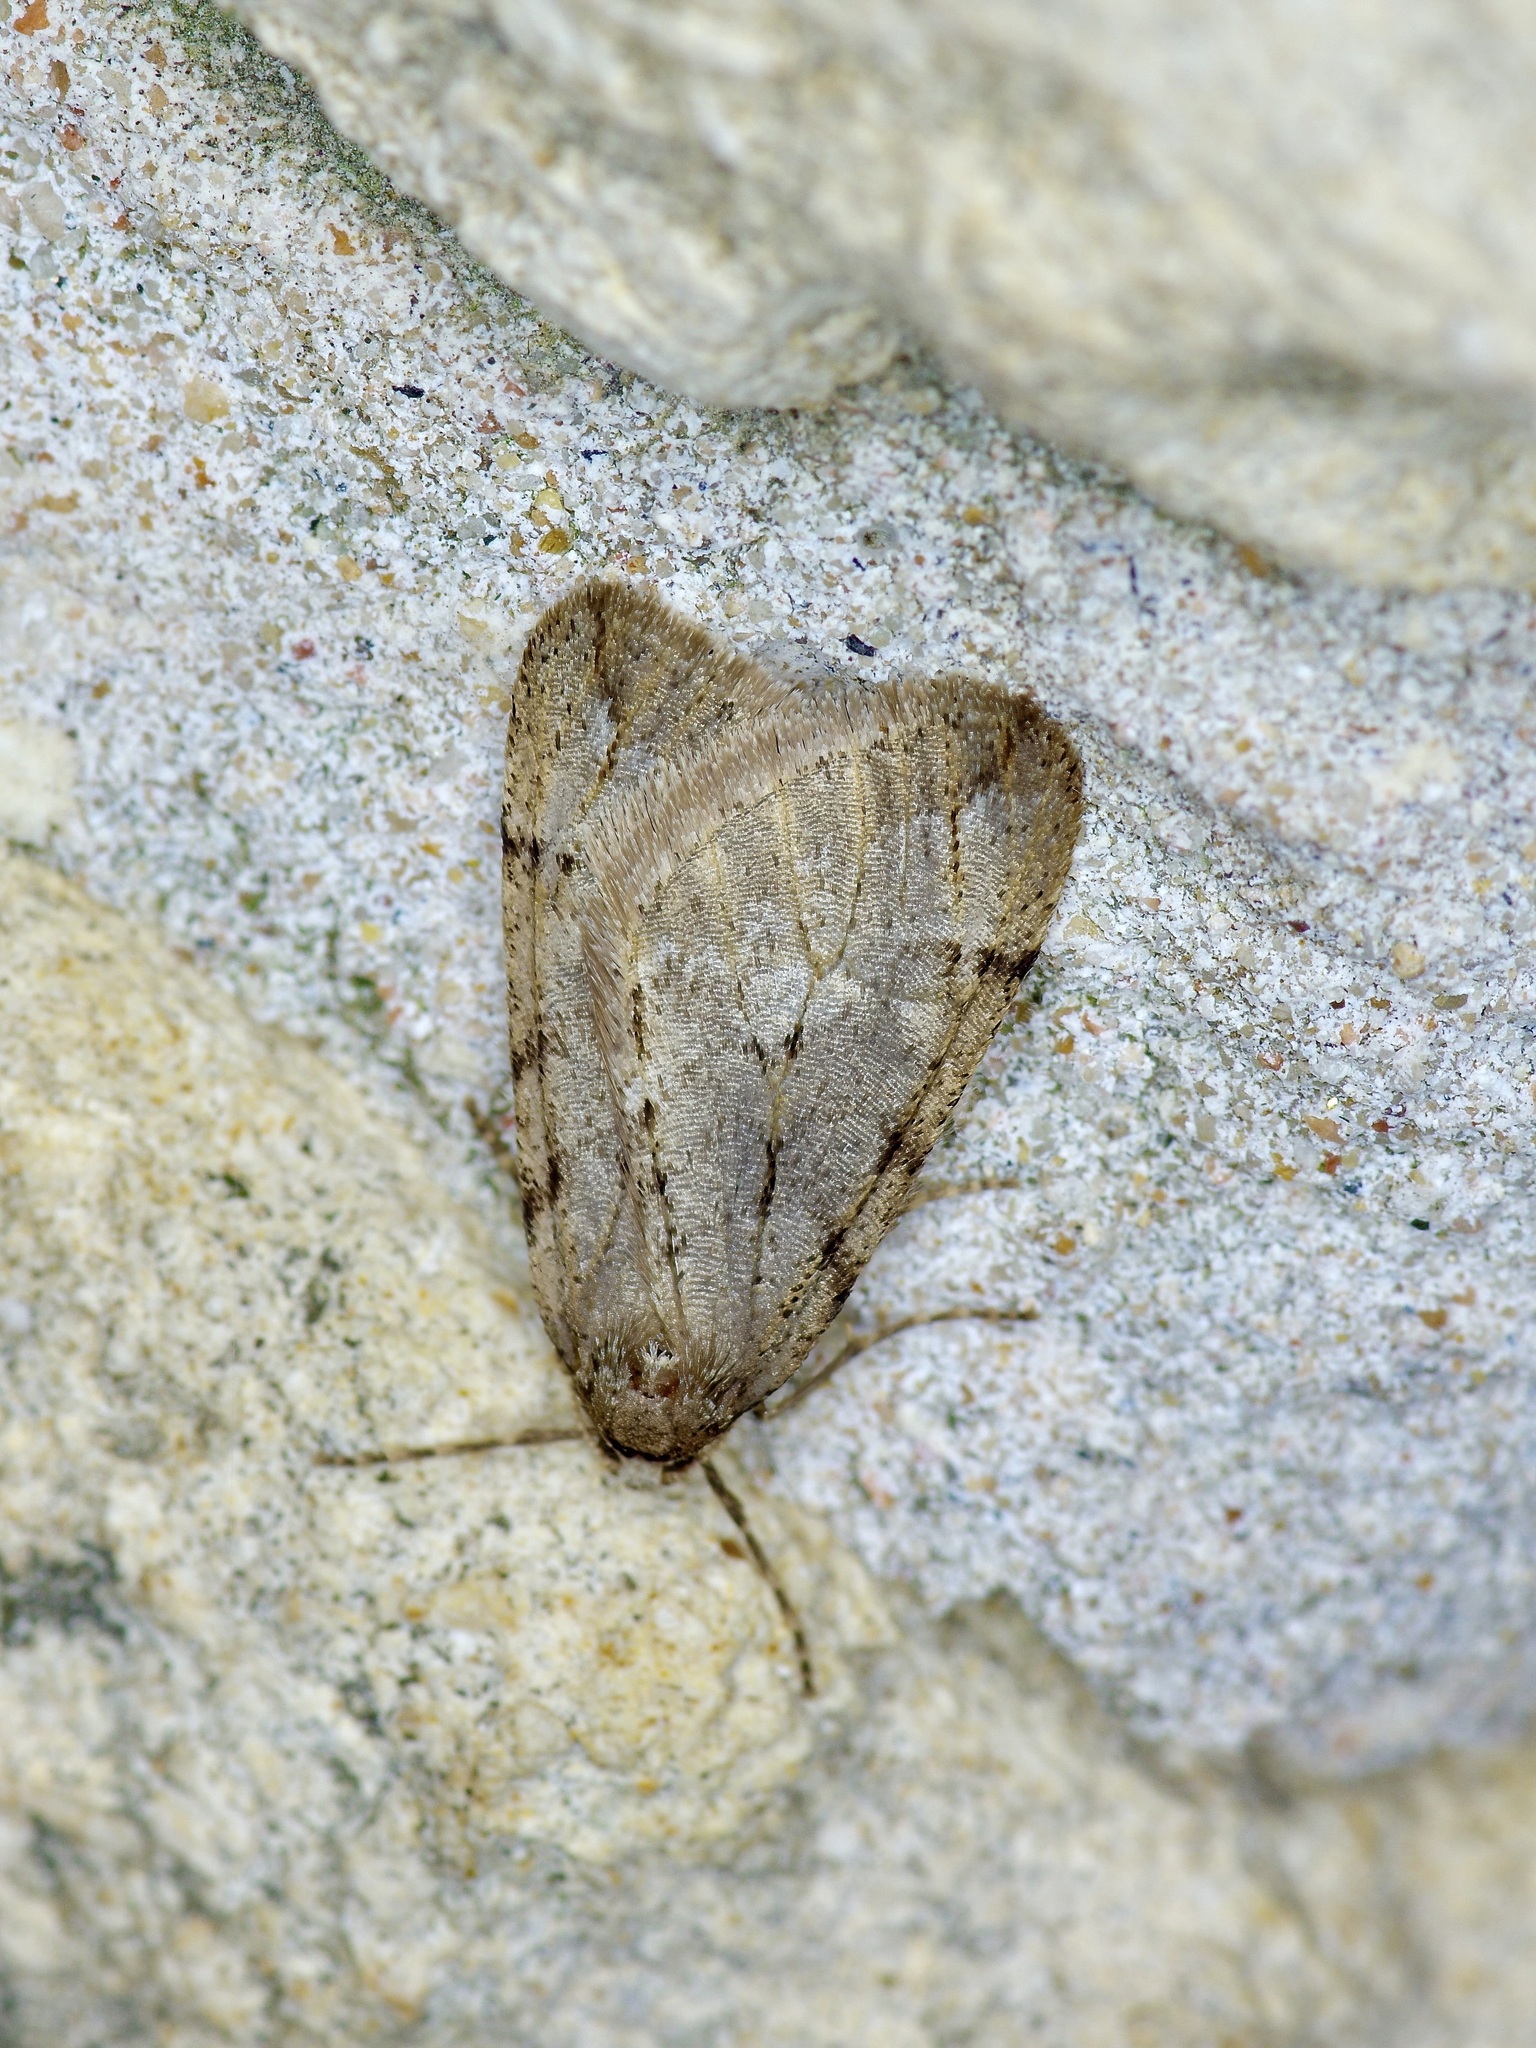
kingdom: Animalia
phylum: Arthropoda
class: Insecta
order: Lepidoptera
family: Geometridae
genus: Paleacrita
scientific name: Paleacrita vernata
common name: Spring cankerworm
